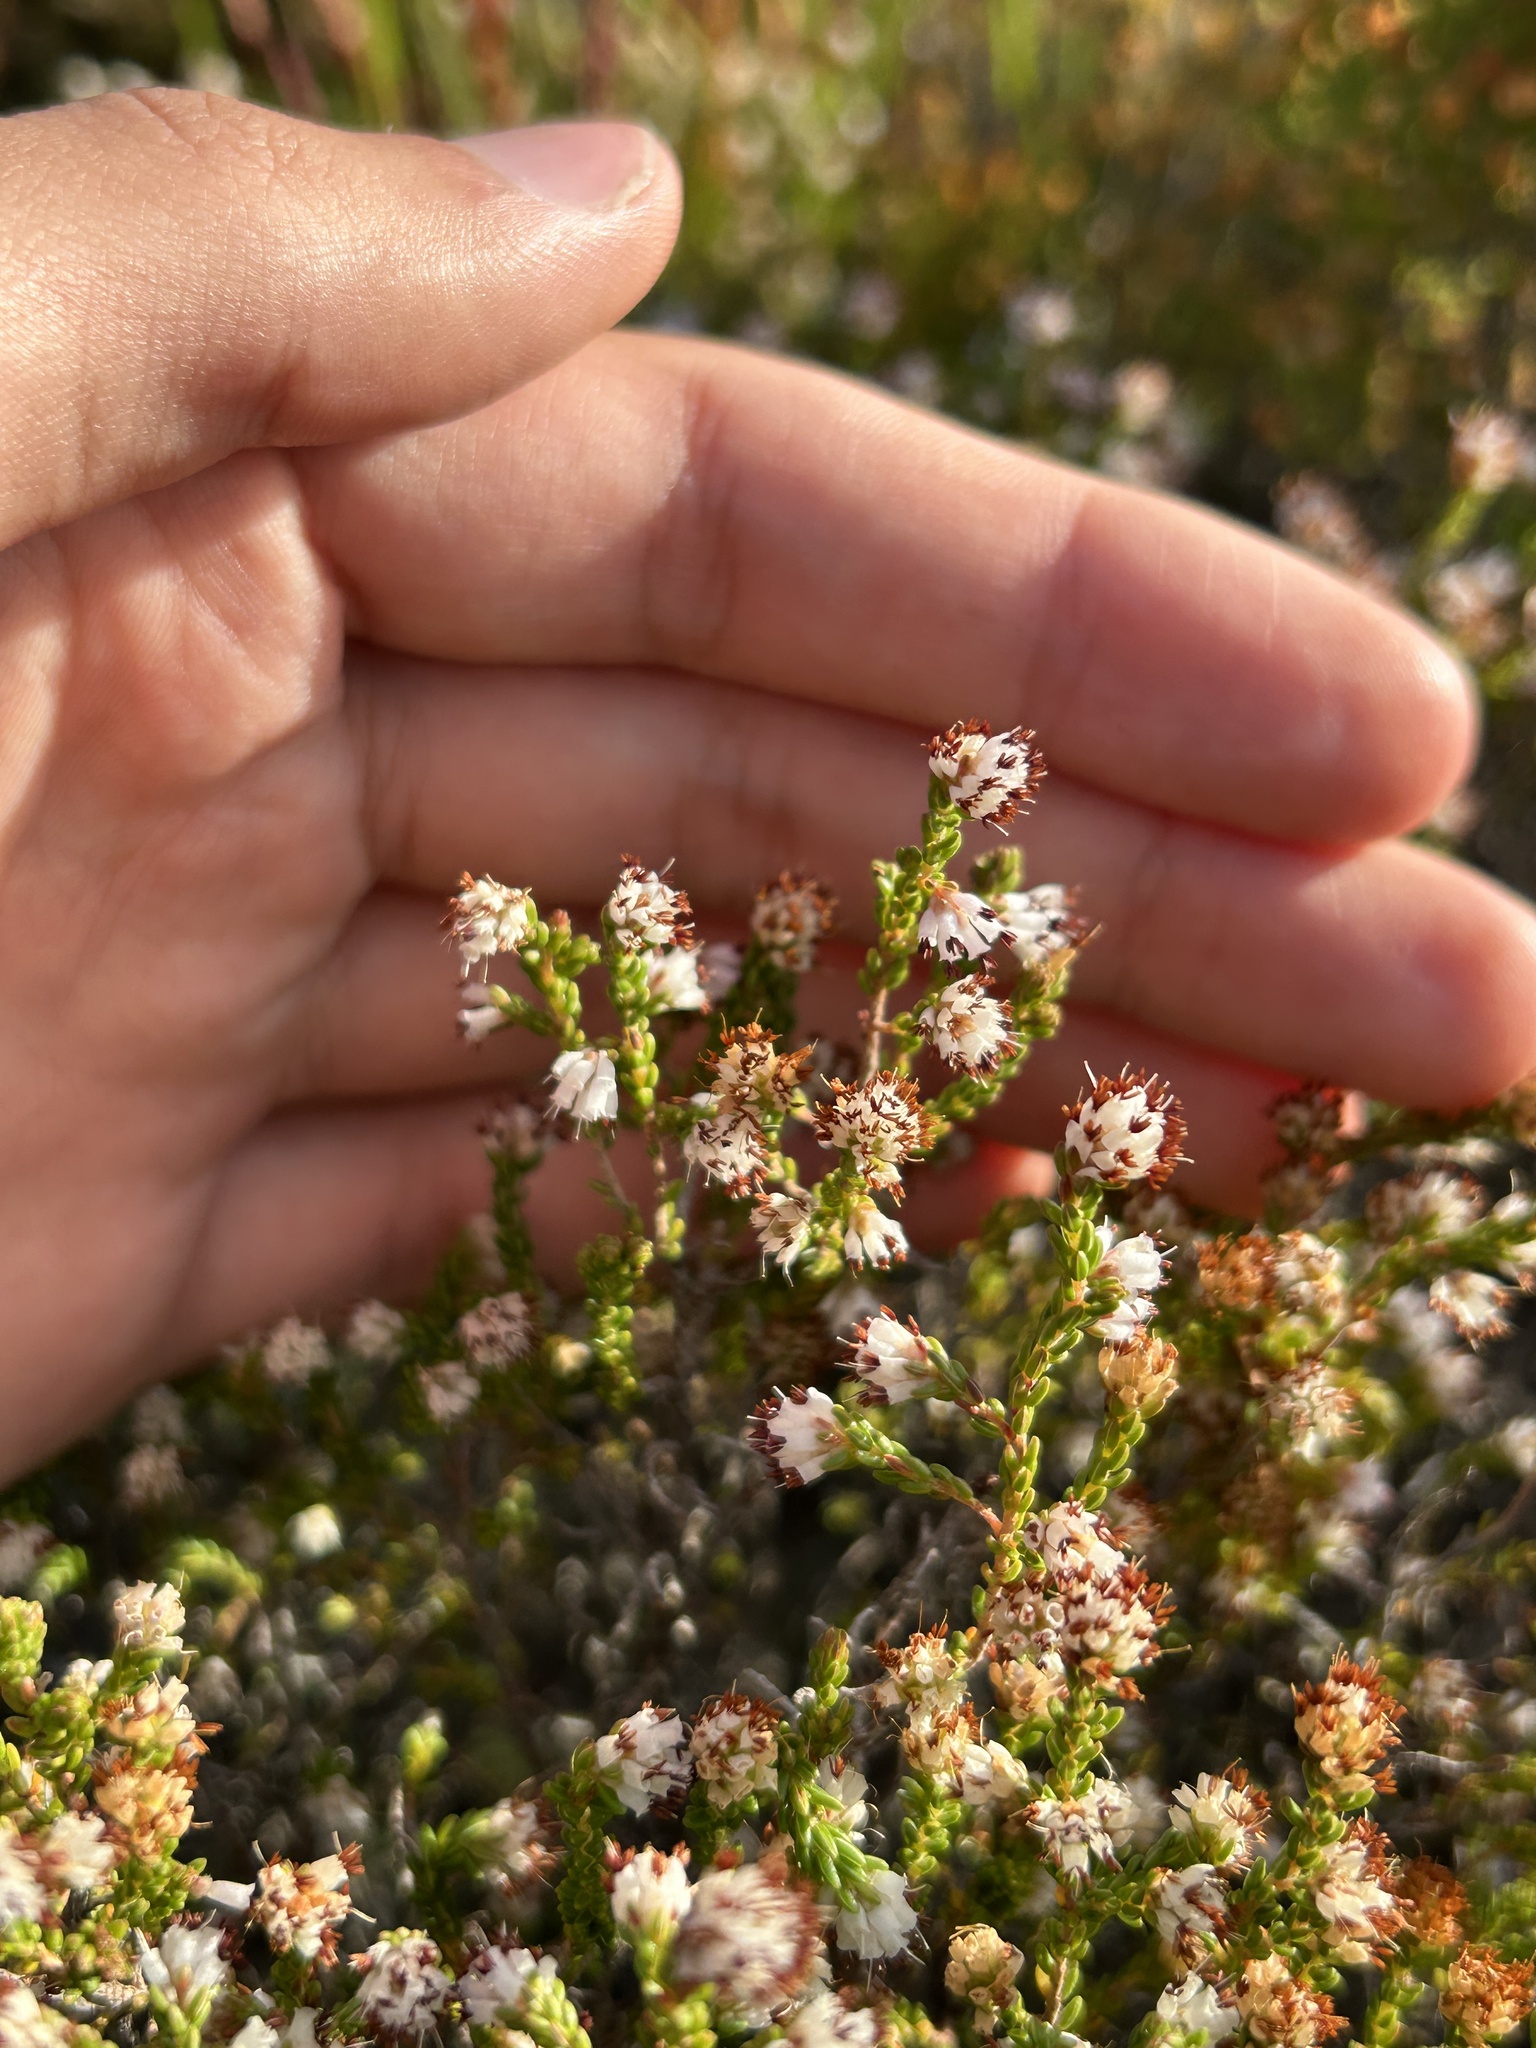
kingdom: Plantae
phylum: Tracheophyta
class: Magnoliopsida
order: Ericales
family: Ericaceae
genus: Erica
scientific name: Erica labialis
